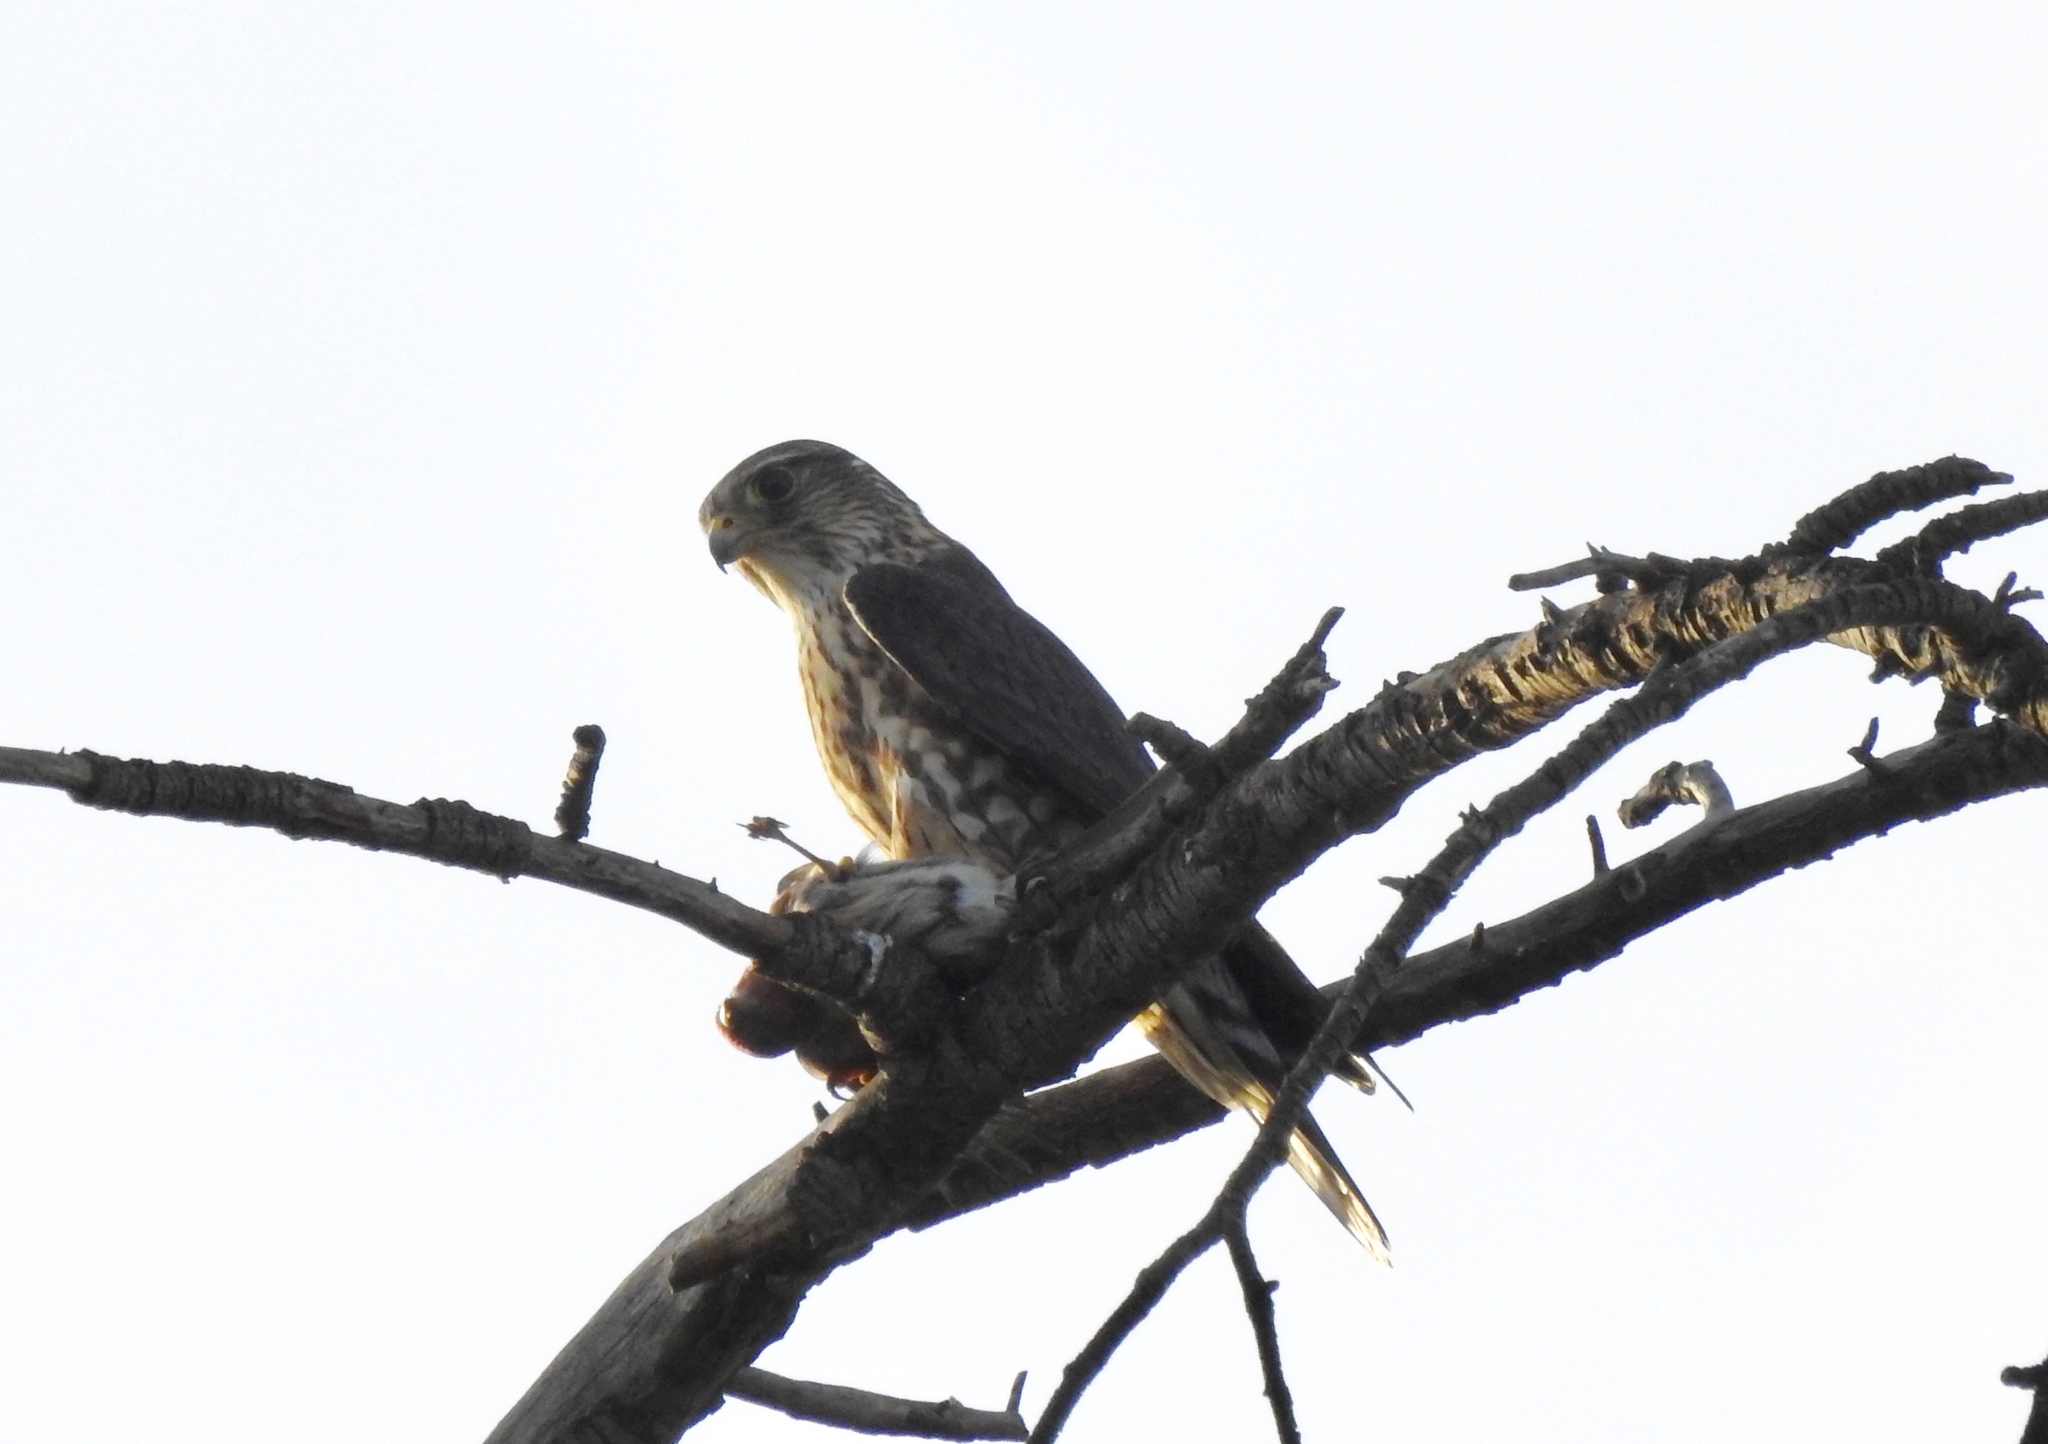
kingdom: Animalia
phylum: Chordata
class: Aves
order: Falconiformes
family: Falconidae
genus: Falco
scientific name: Falco columbarius
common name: Merlin
